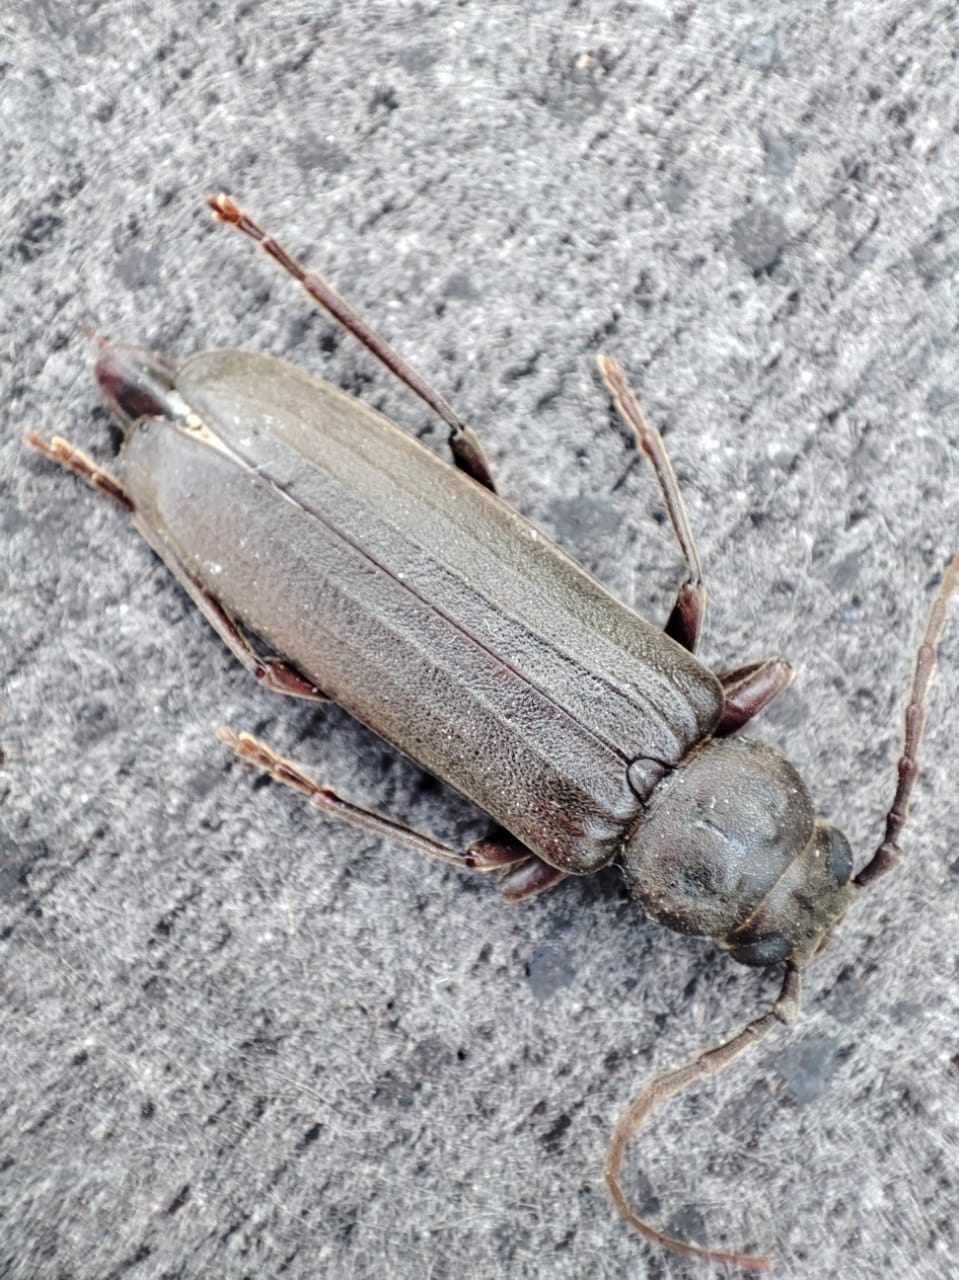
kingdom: Animalia
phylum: Arthropoda
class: Insecta
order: Coleoptera
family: Cerambycidae
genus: Arhopalus
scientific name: Arhopalus rusticus
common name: Rust pine borer
